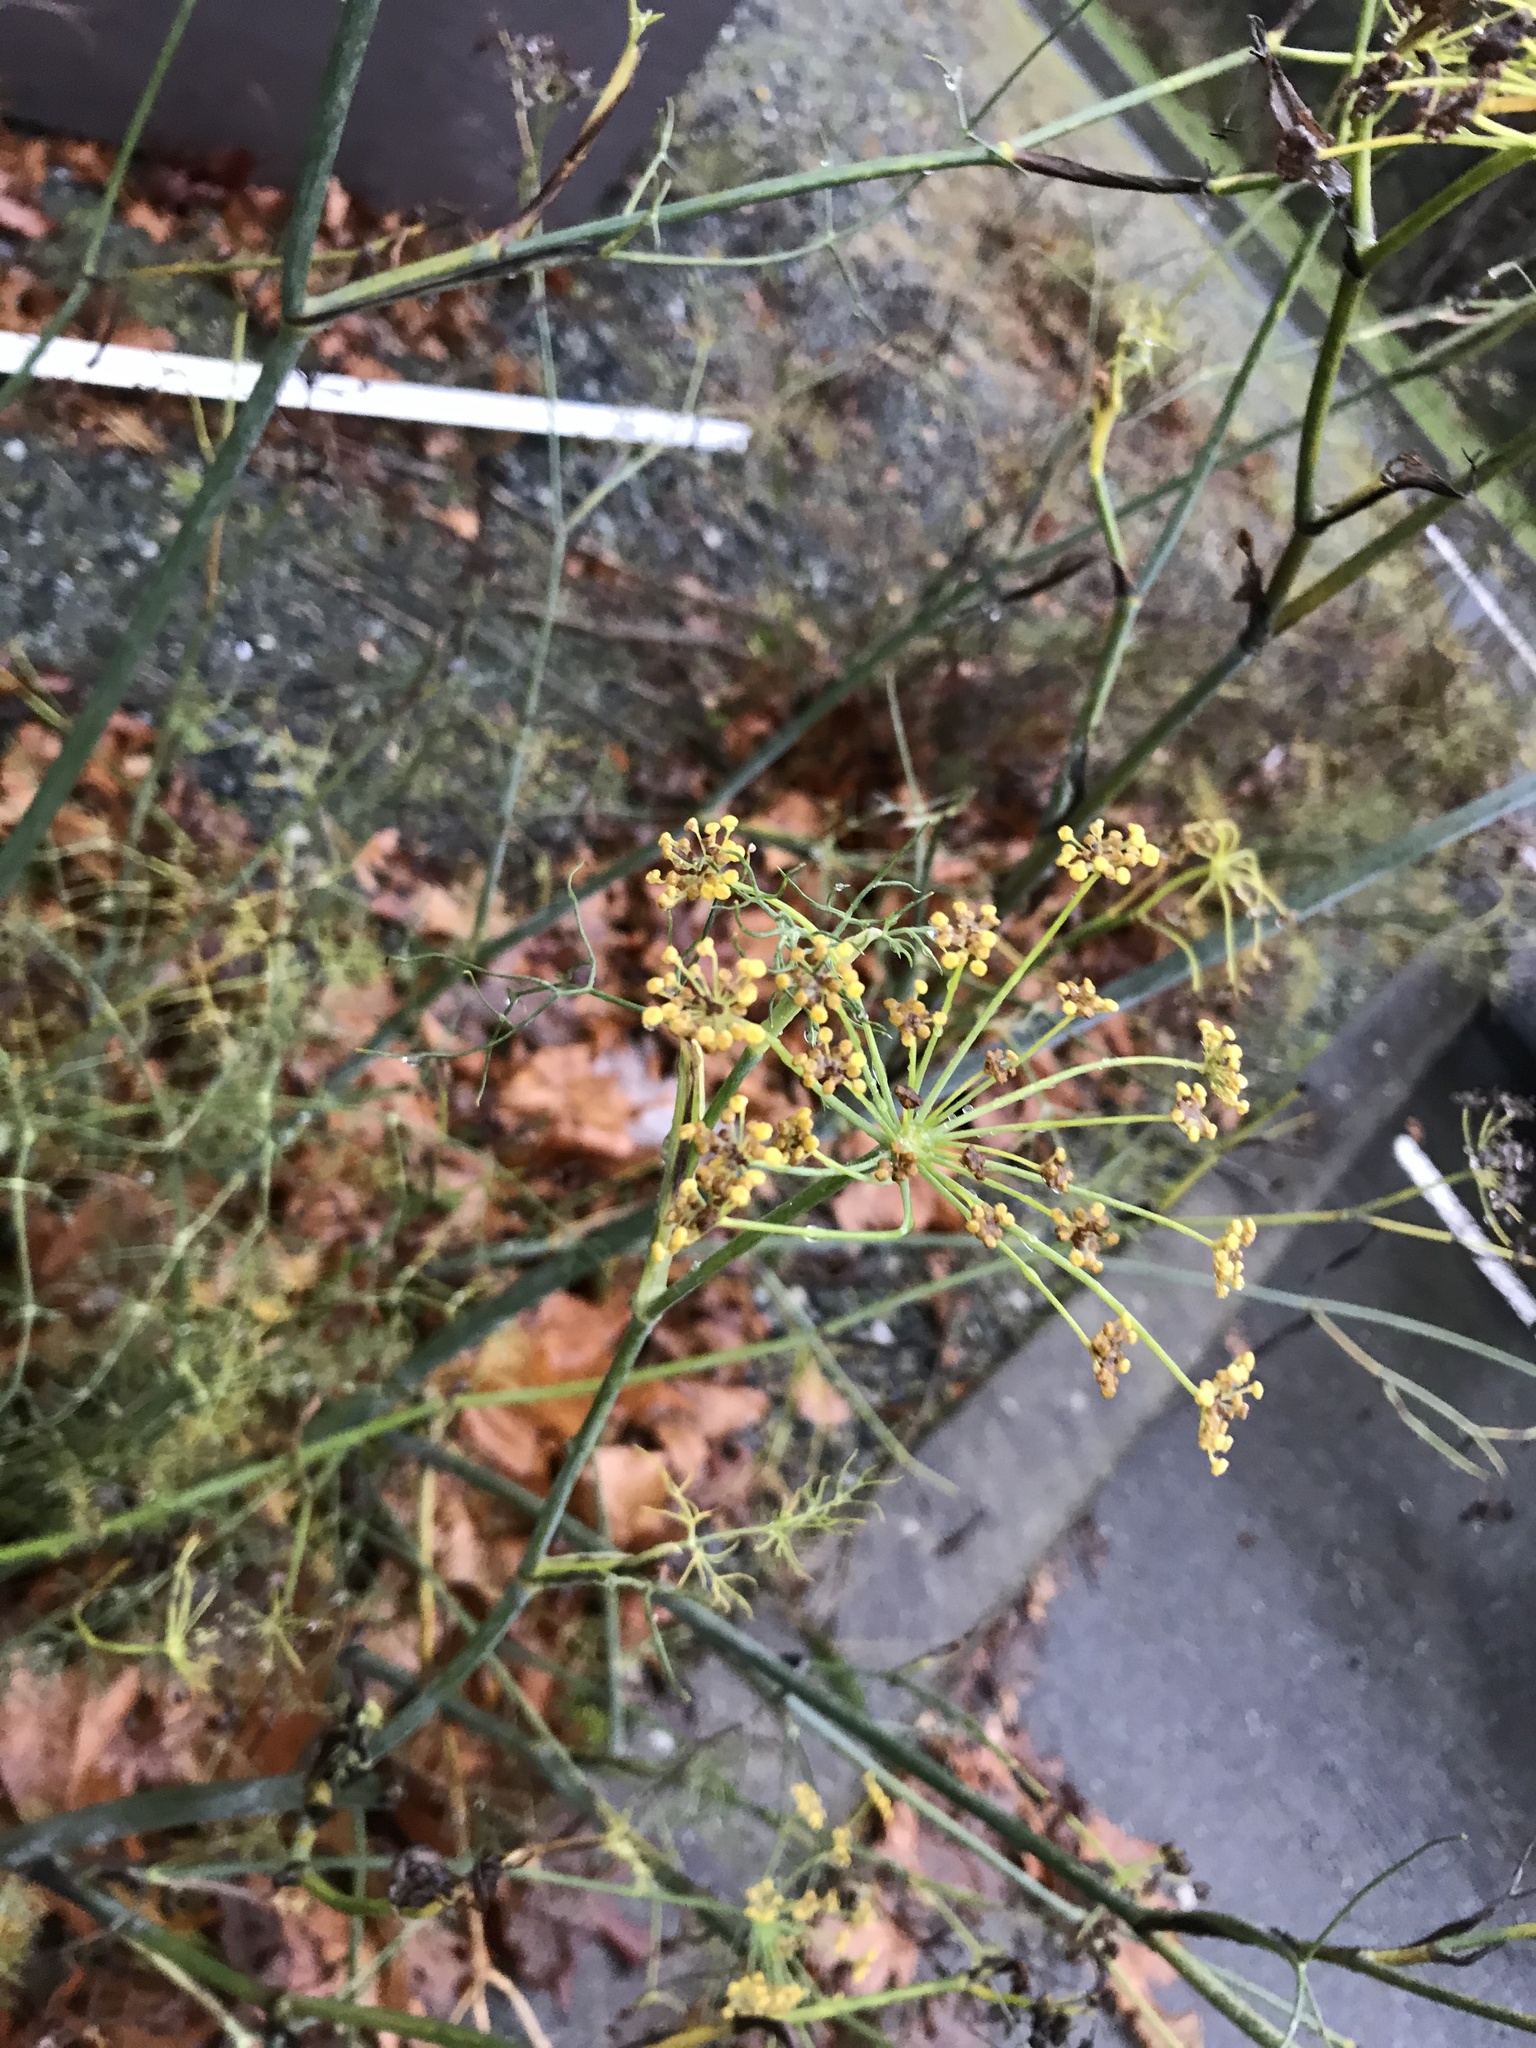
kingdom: Plantae
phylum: Tracheophyta
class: Magnoliopsida
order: Apiales
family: Apiaceae
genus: Foeniculum
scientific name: Foeniculum vulgare
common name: Fennel
